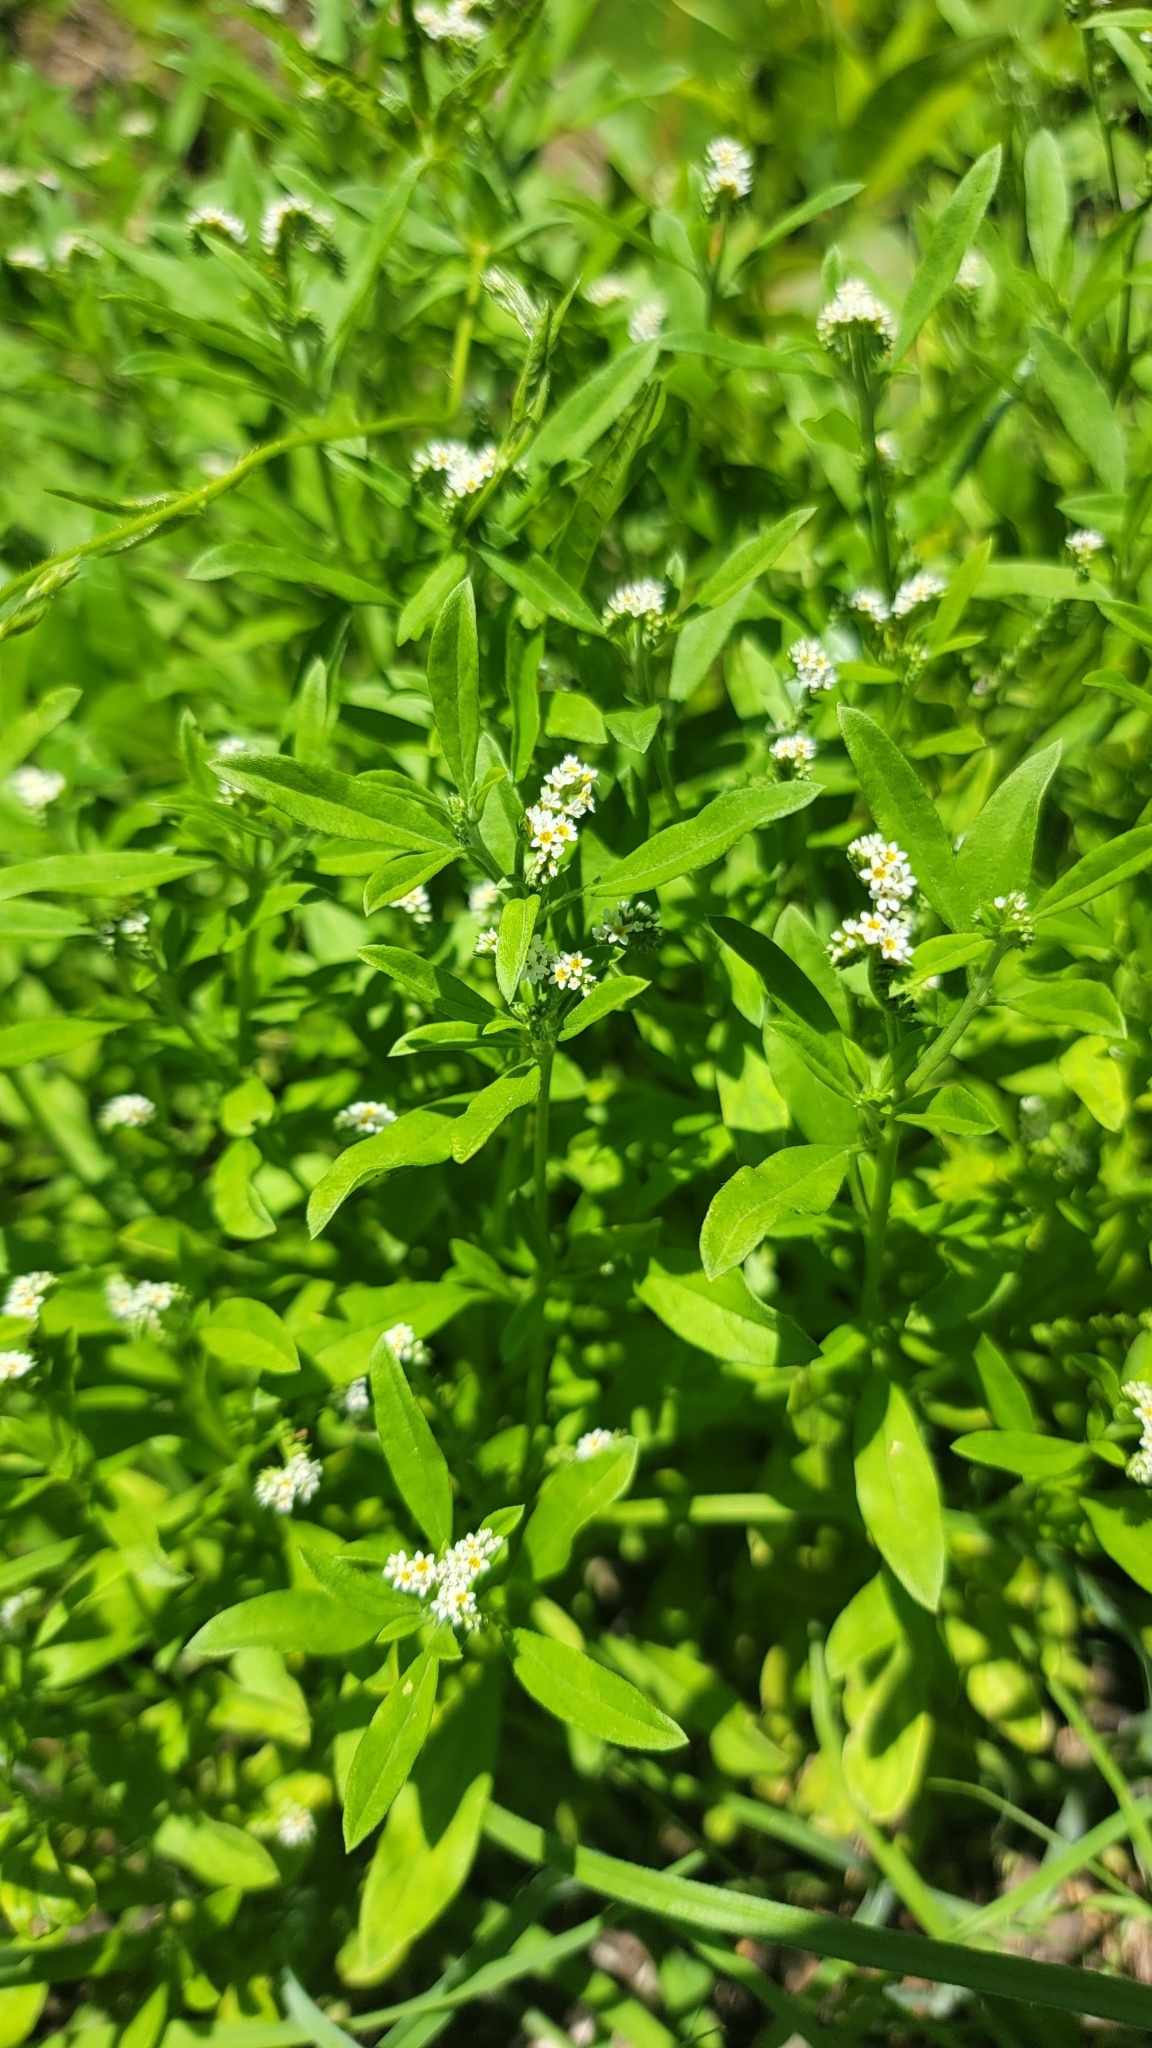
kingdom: Plantae
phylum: Tracheophyta
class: Magnoliopsida
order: Boraginales
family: Heliotropiaceae
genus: Euploca
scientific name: Euploca procumbens
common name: Fourspike heliotrope
